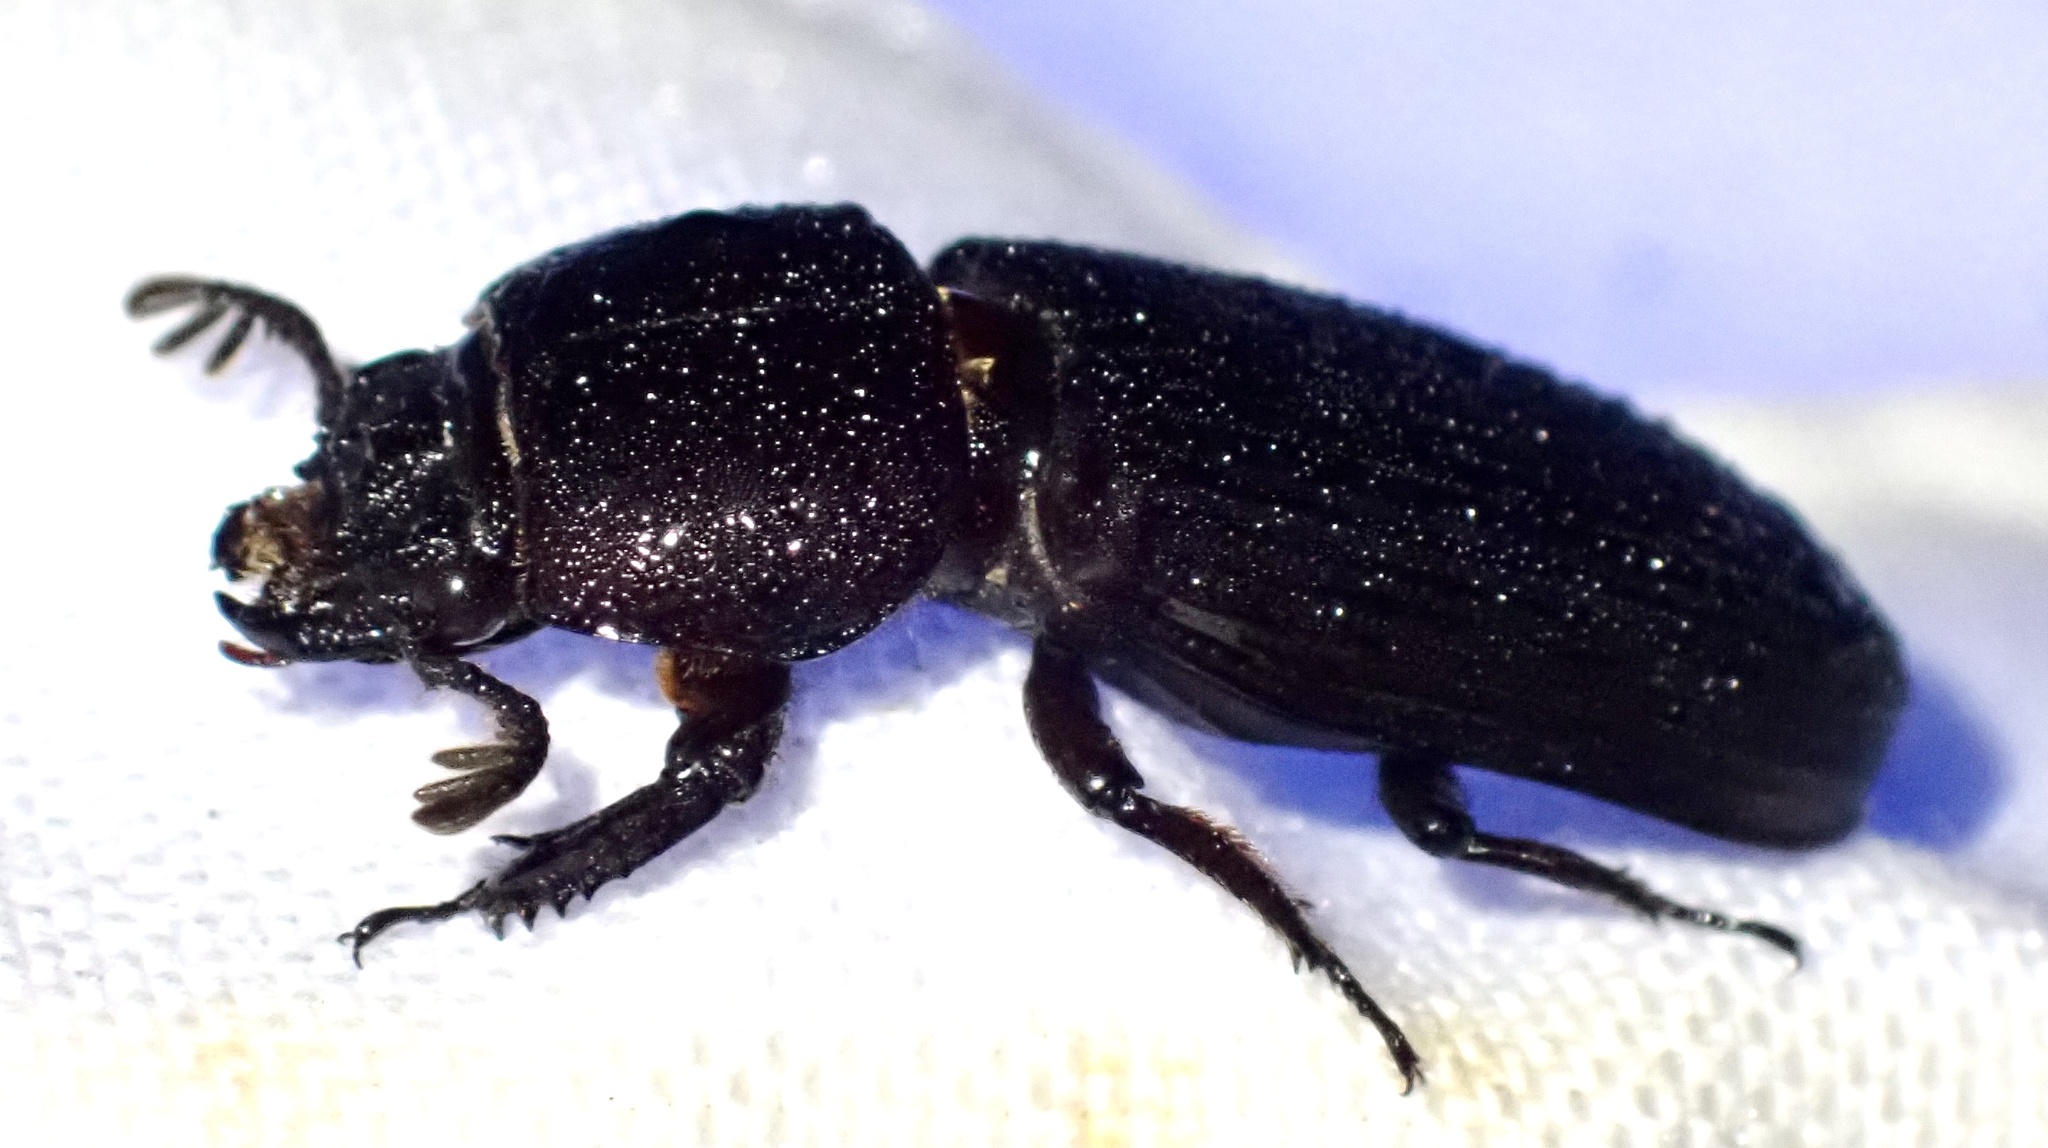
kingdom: Animalia
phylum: Arthropoda
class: Insecta
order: Coleoptera
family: Passalidae
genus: Didimus
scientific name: Didimus sansibaricus
